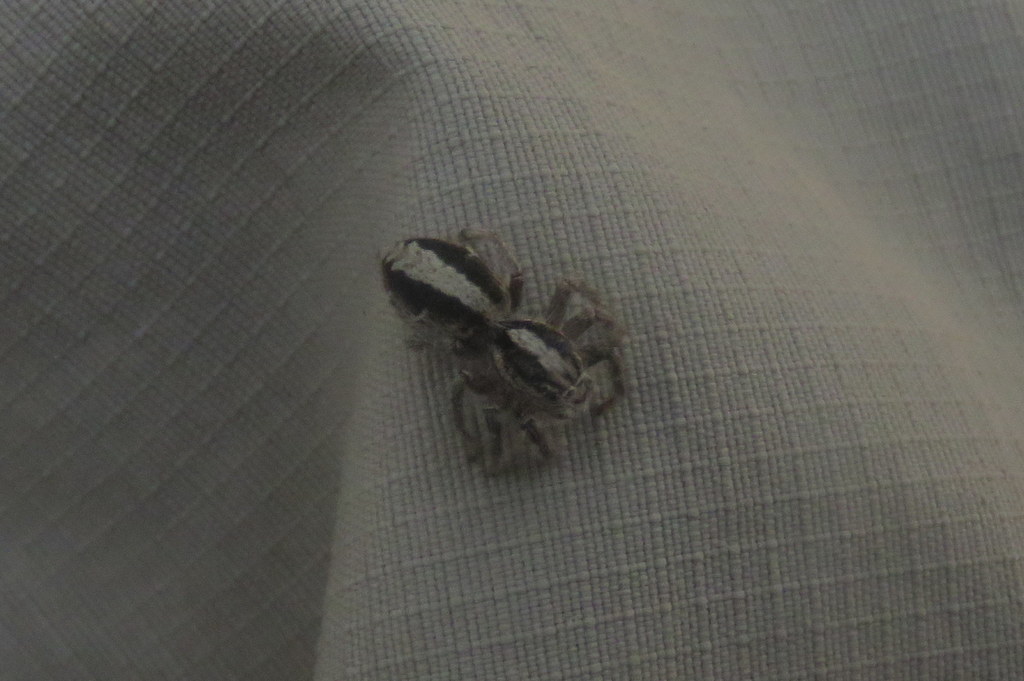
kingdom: Animalia
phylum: Arthropoda
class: Arachnida
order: Araneae
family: Salticidae
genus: Megafreya
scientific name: Megafreya sutrix
